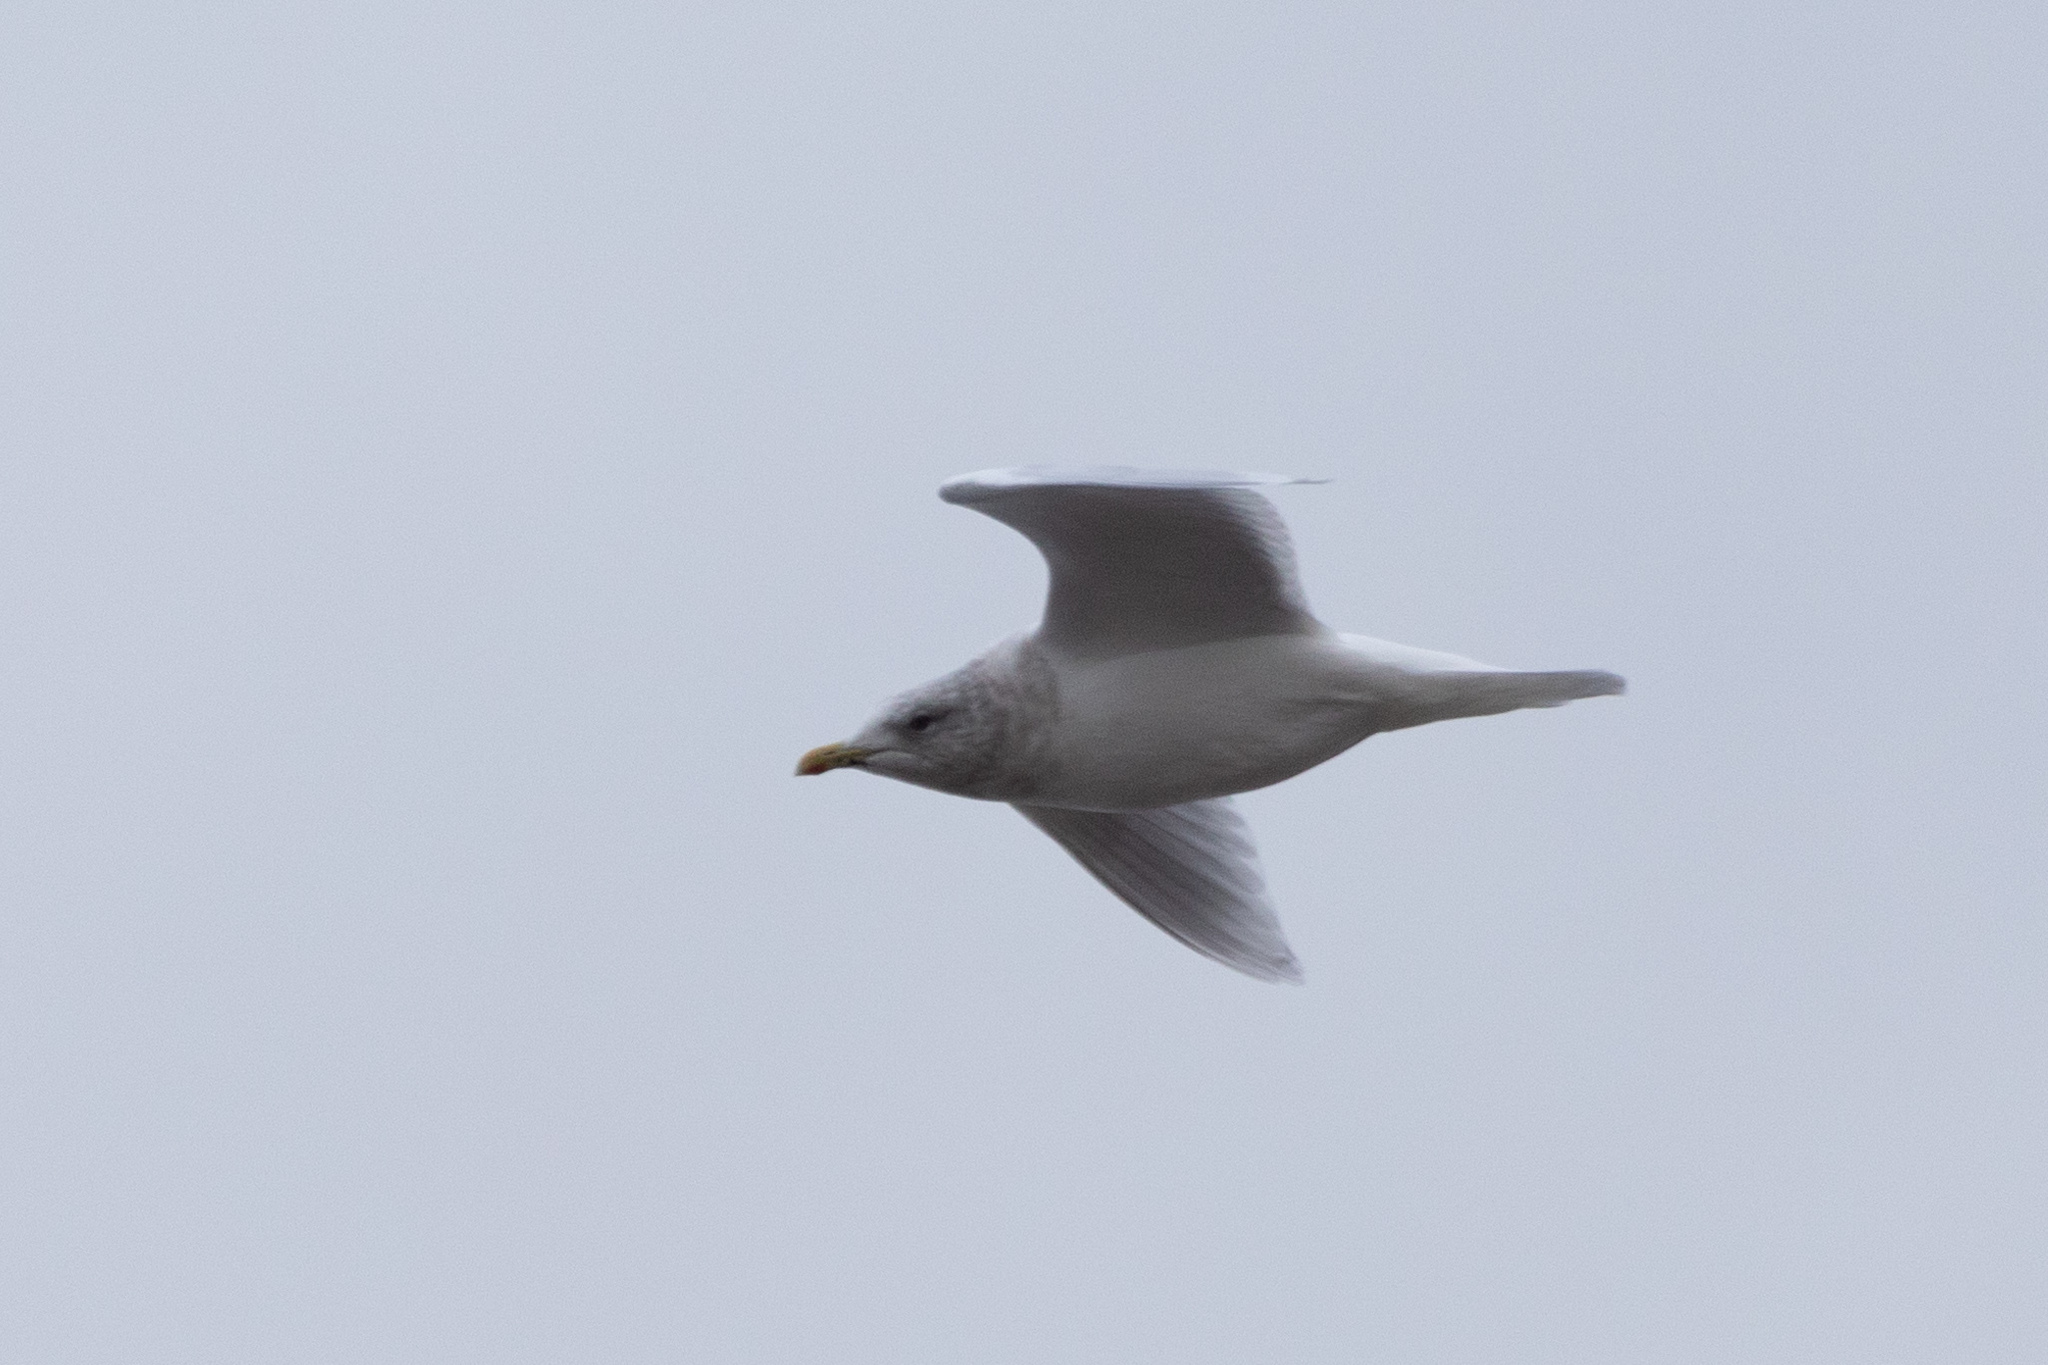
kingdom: Animalia
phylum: Chordata
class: Aves
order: Charadriiformes
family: Laridae
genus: Larus
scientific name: Larus glaucoides
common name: Iceland gull
